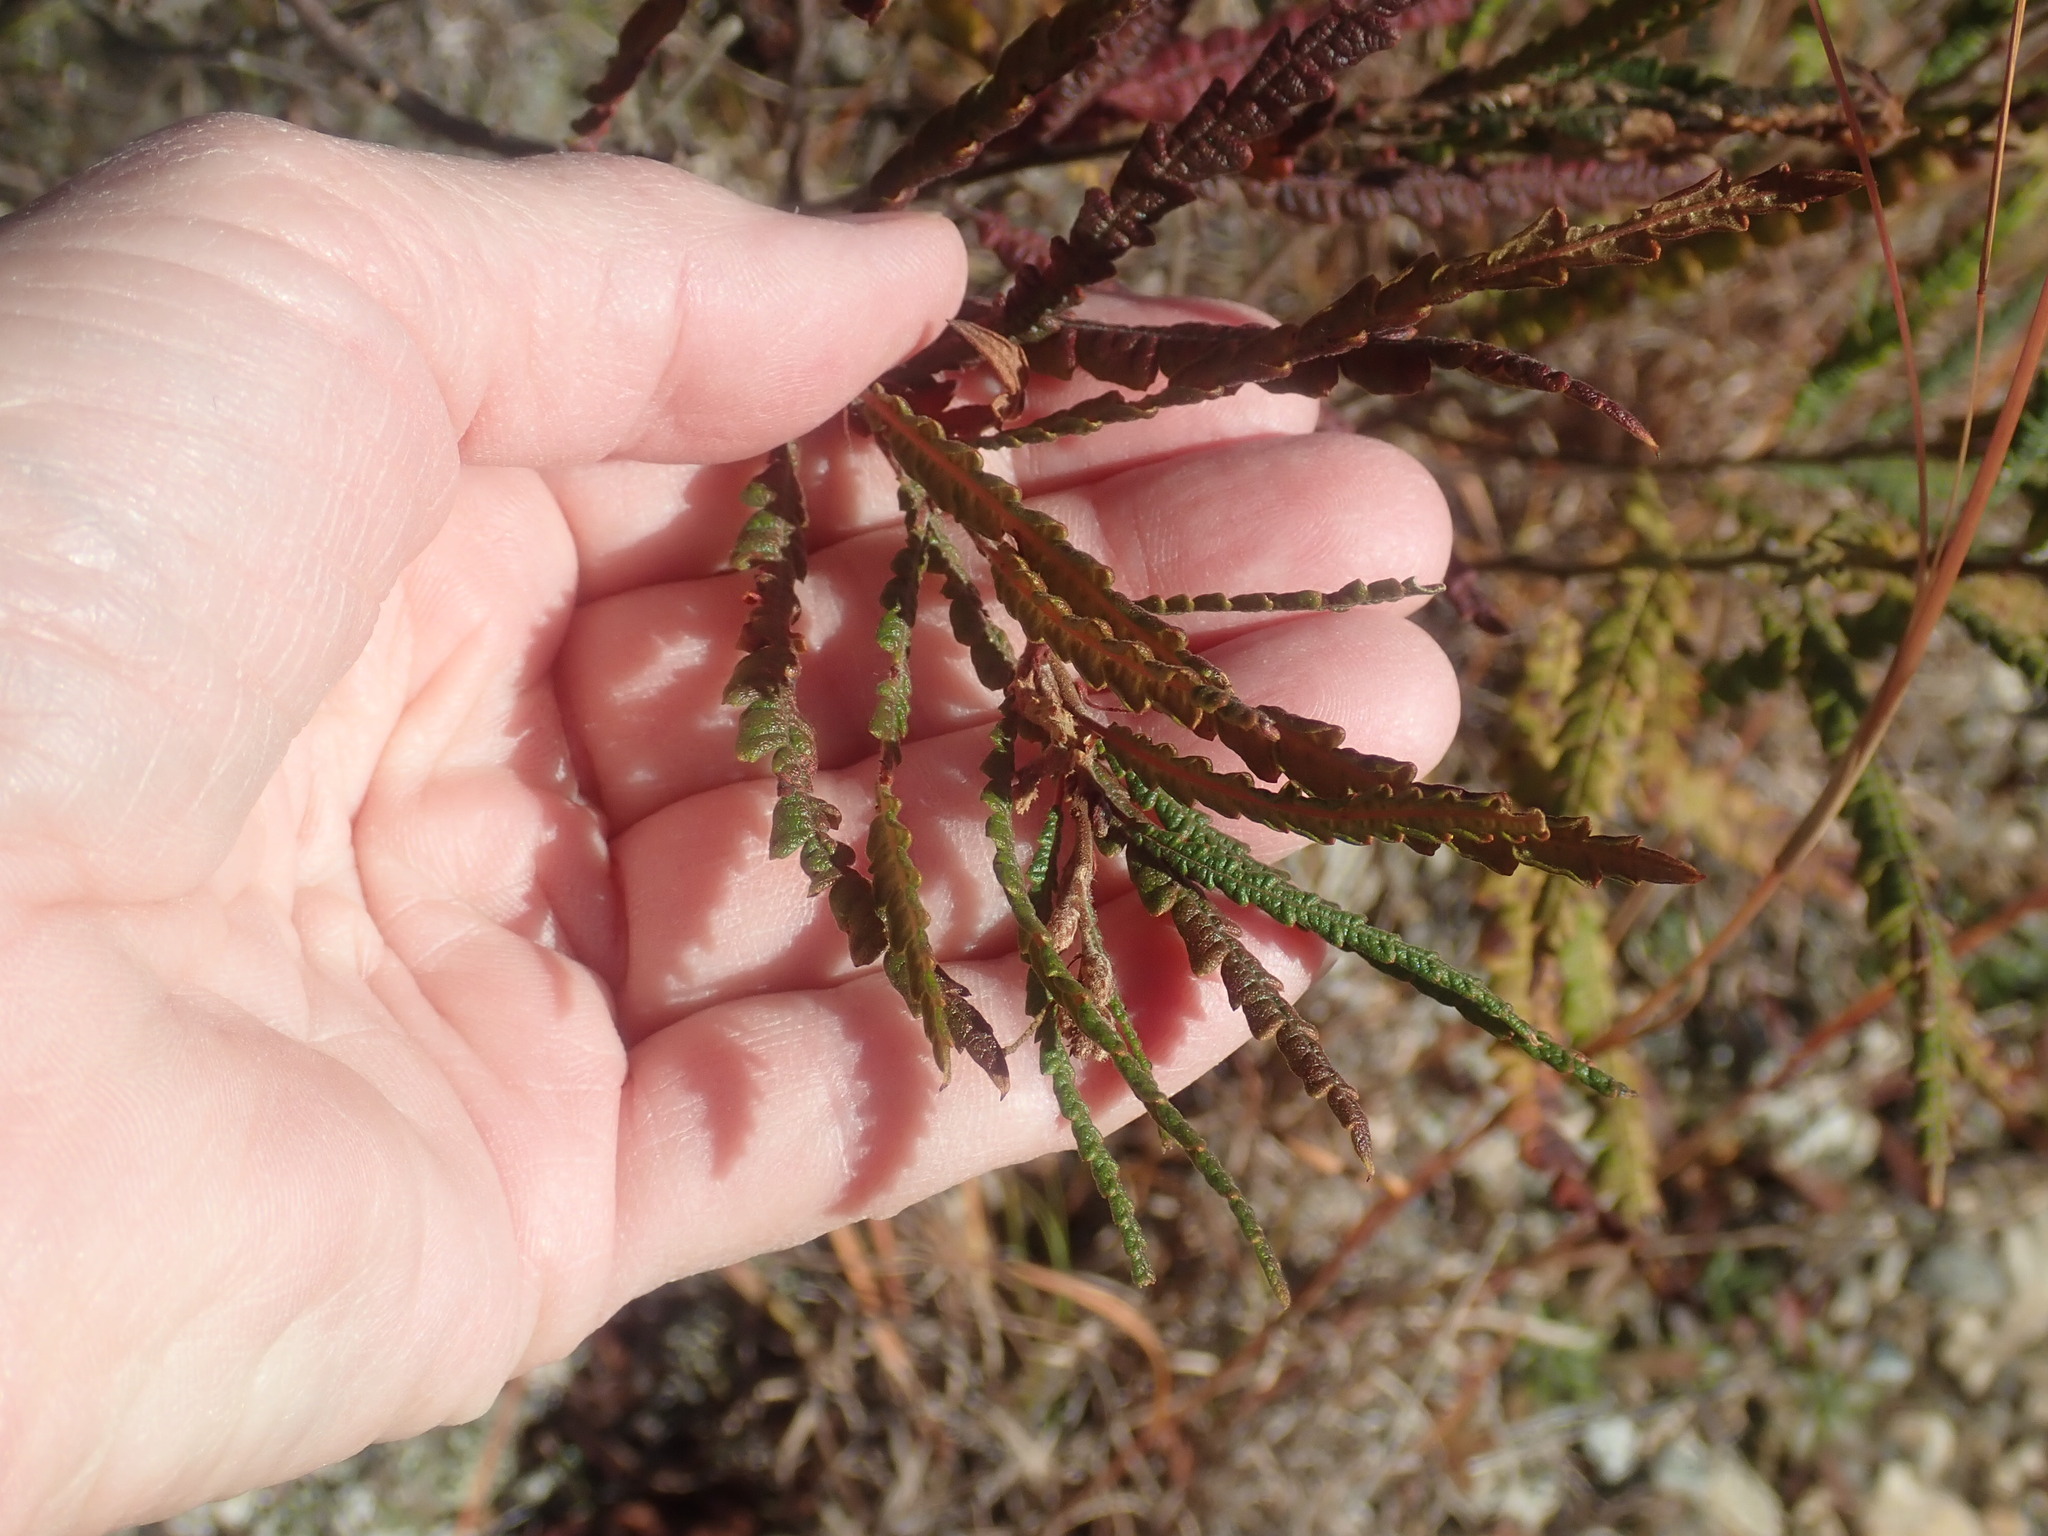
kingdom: Plantae
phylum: Tracheophyta
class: Magnoliopsida
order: Fagales
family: Myricaceae
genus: Comptonia
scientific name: Comptonia peregrina
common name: Sweet-fern
